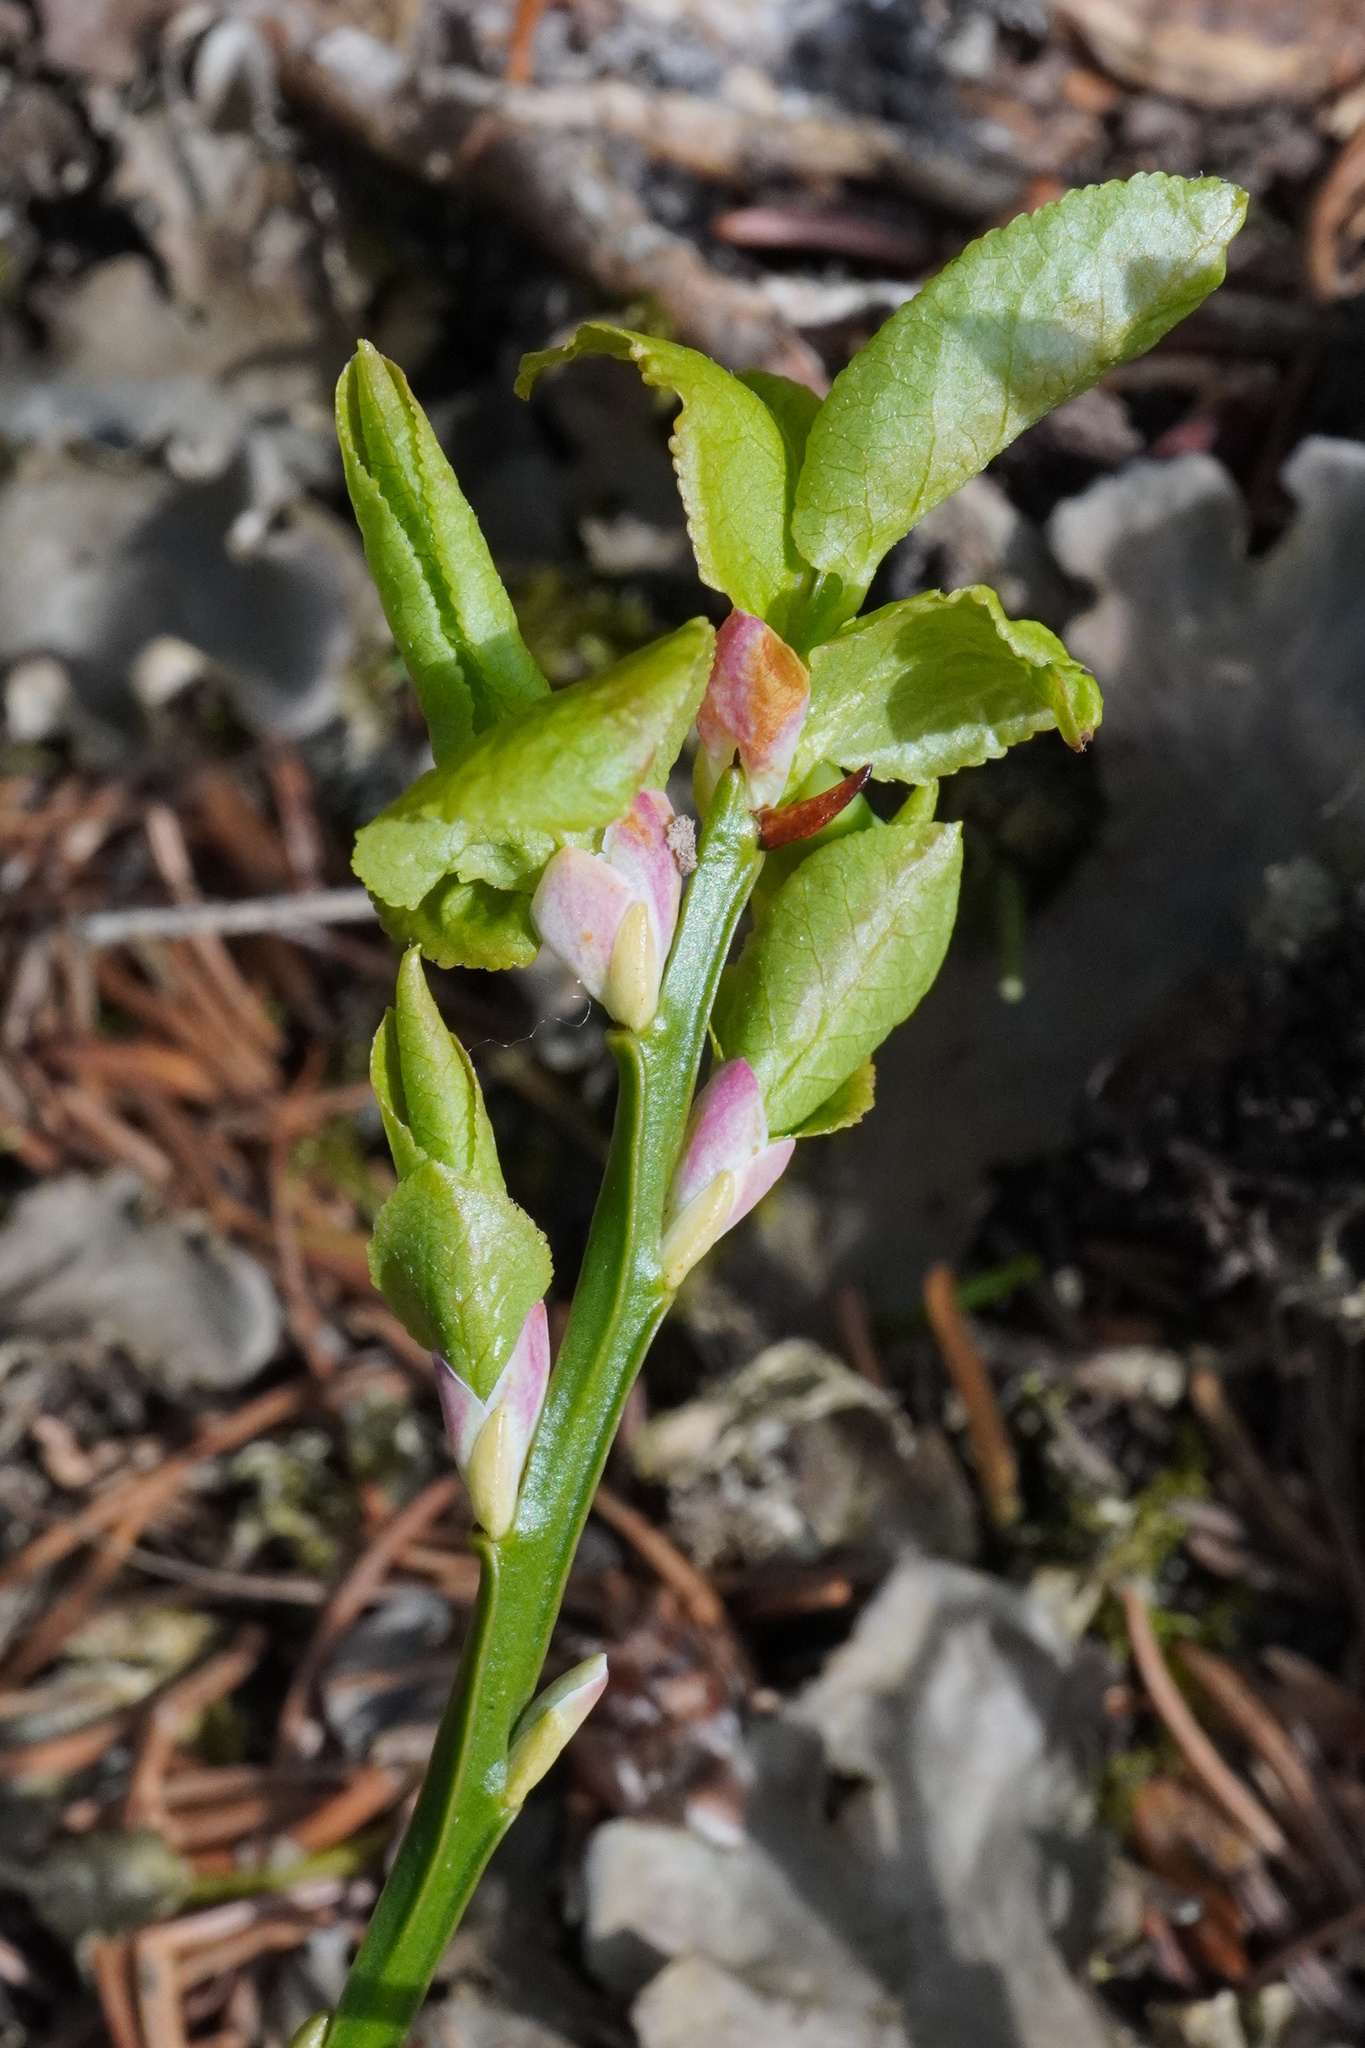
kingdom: Plantae
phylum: Tracheophyta
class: Magnoliopsida
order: Ericales
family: Ericaceae
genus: Vaccinium
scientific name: Vaccinium myrtillus
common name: Bilberry
